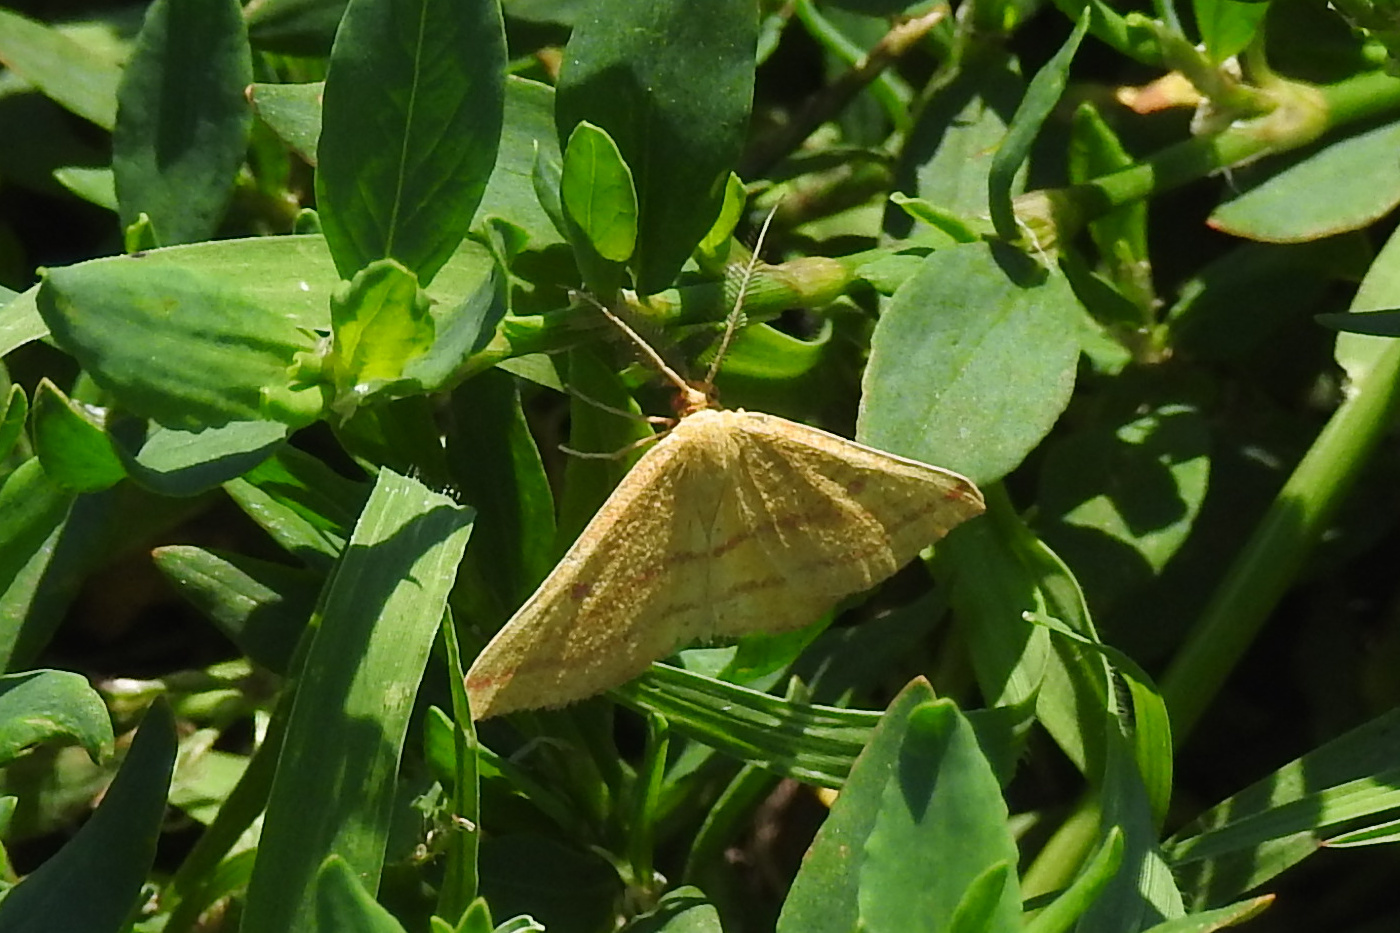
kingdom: Animalia
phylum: Arthropoda
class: Insecta
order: Lepidoptera
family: Geometridae
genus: Haematopis
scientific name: Haematopis grataria
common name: Chickweed geometer
